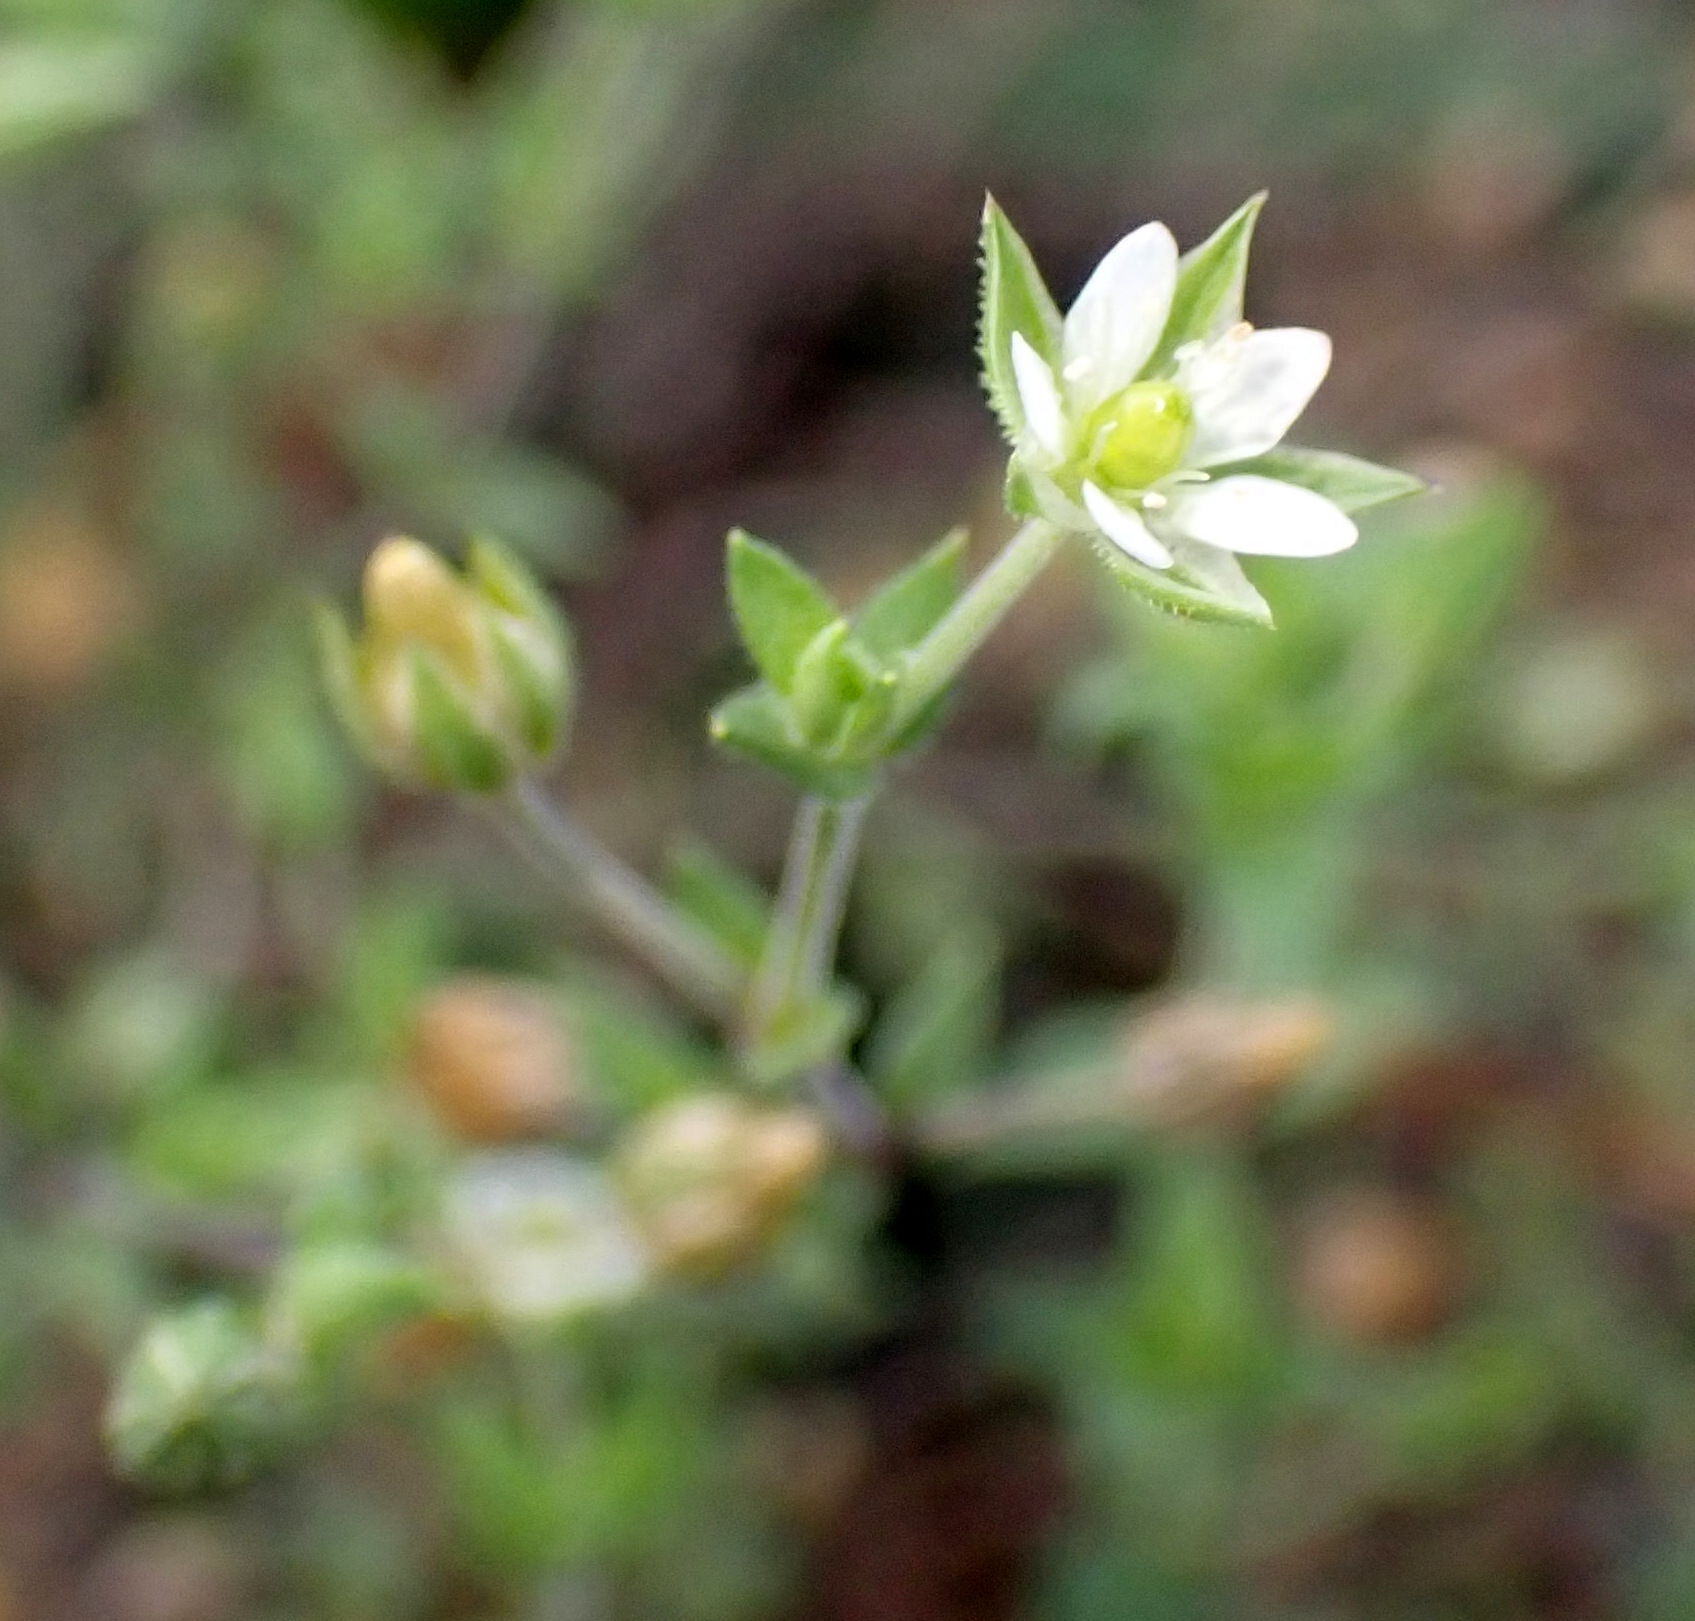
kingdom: Plantae
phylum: Tracheophyta
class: Magnoliopsida
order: Caryophyllales
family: Caryophyllaceae
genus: Arenaria
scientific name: Arenaria serpyllifolia
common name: Thyme-leaved sandwort
